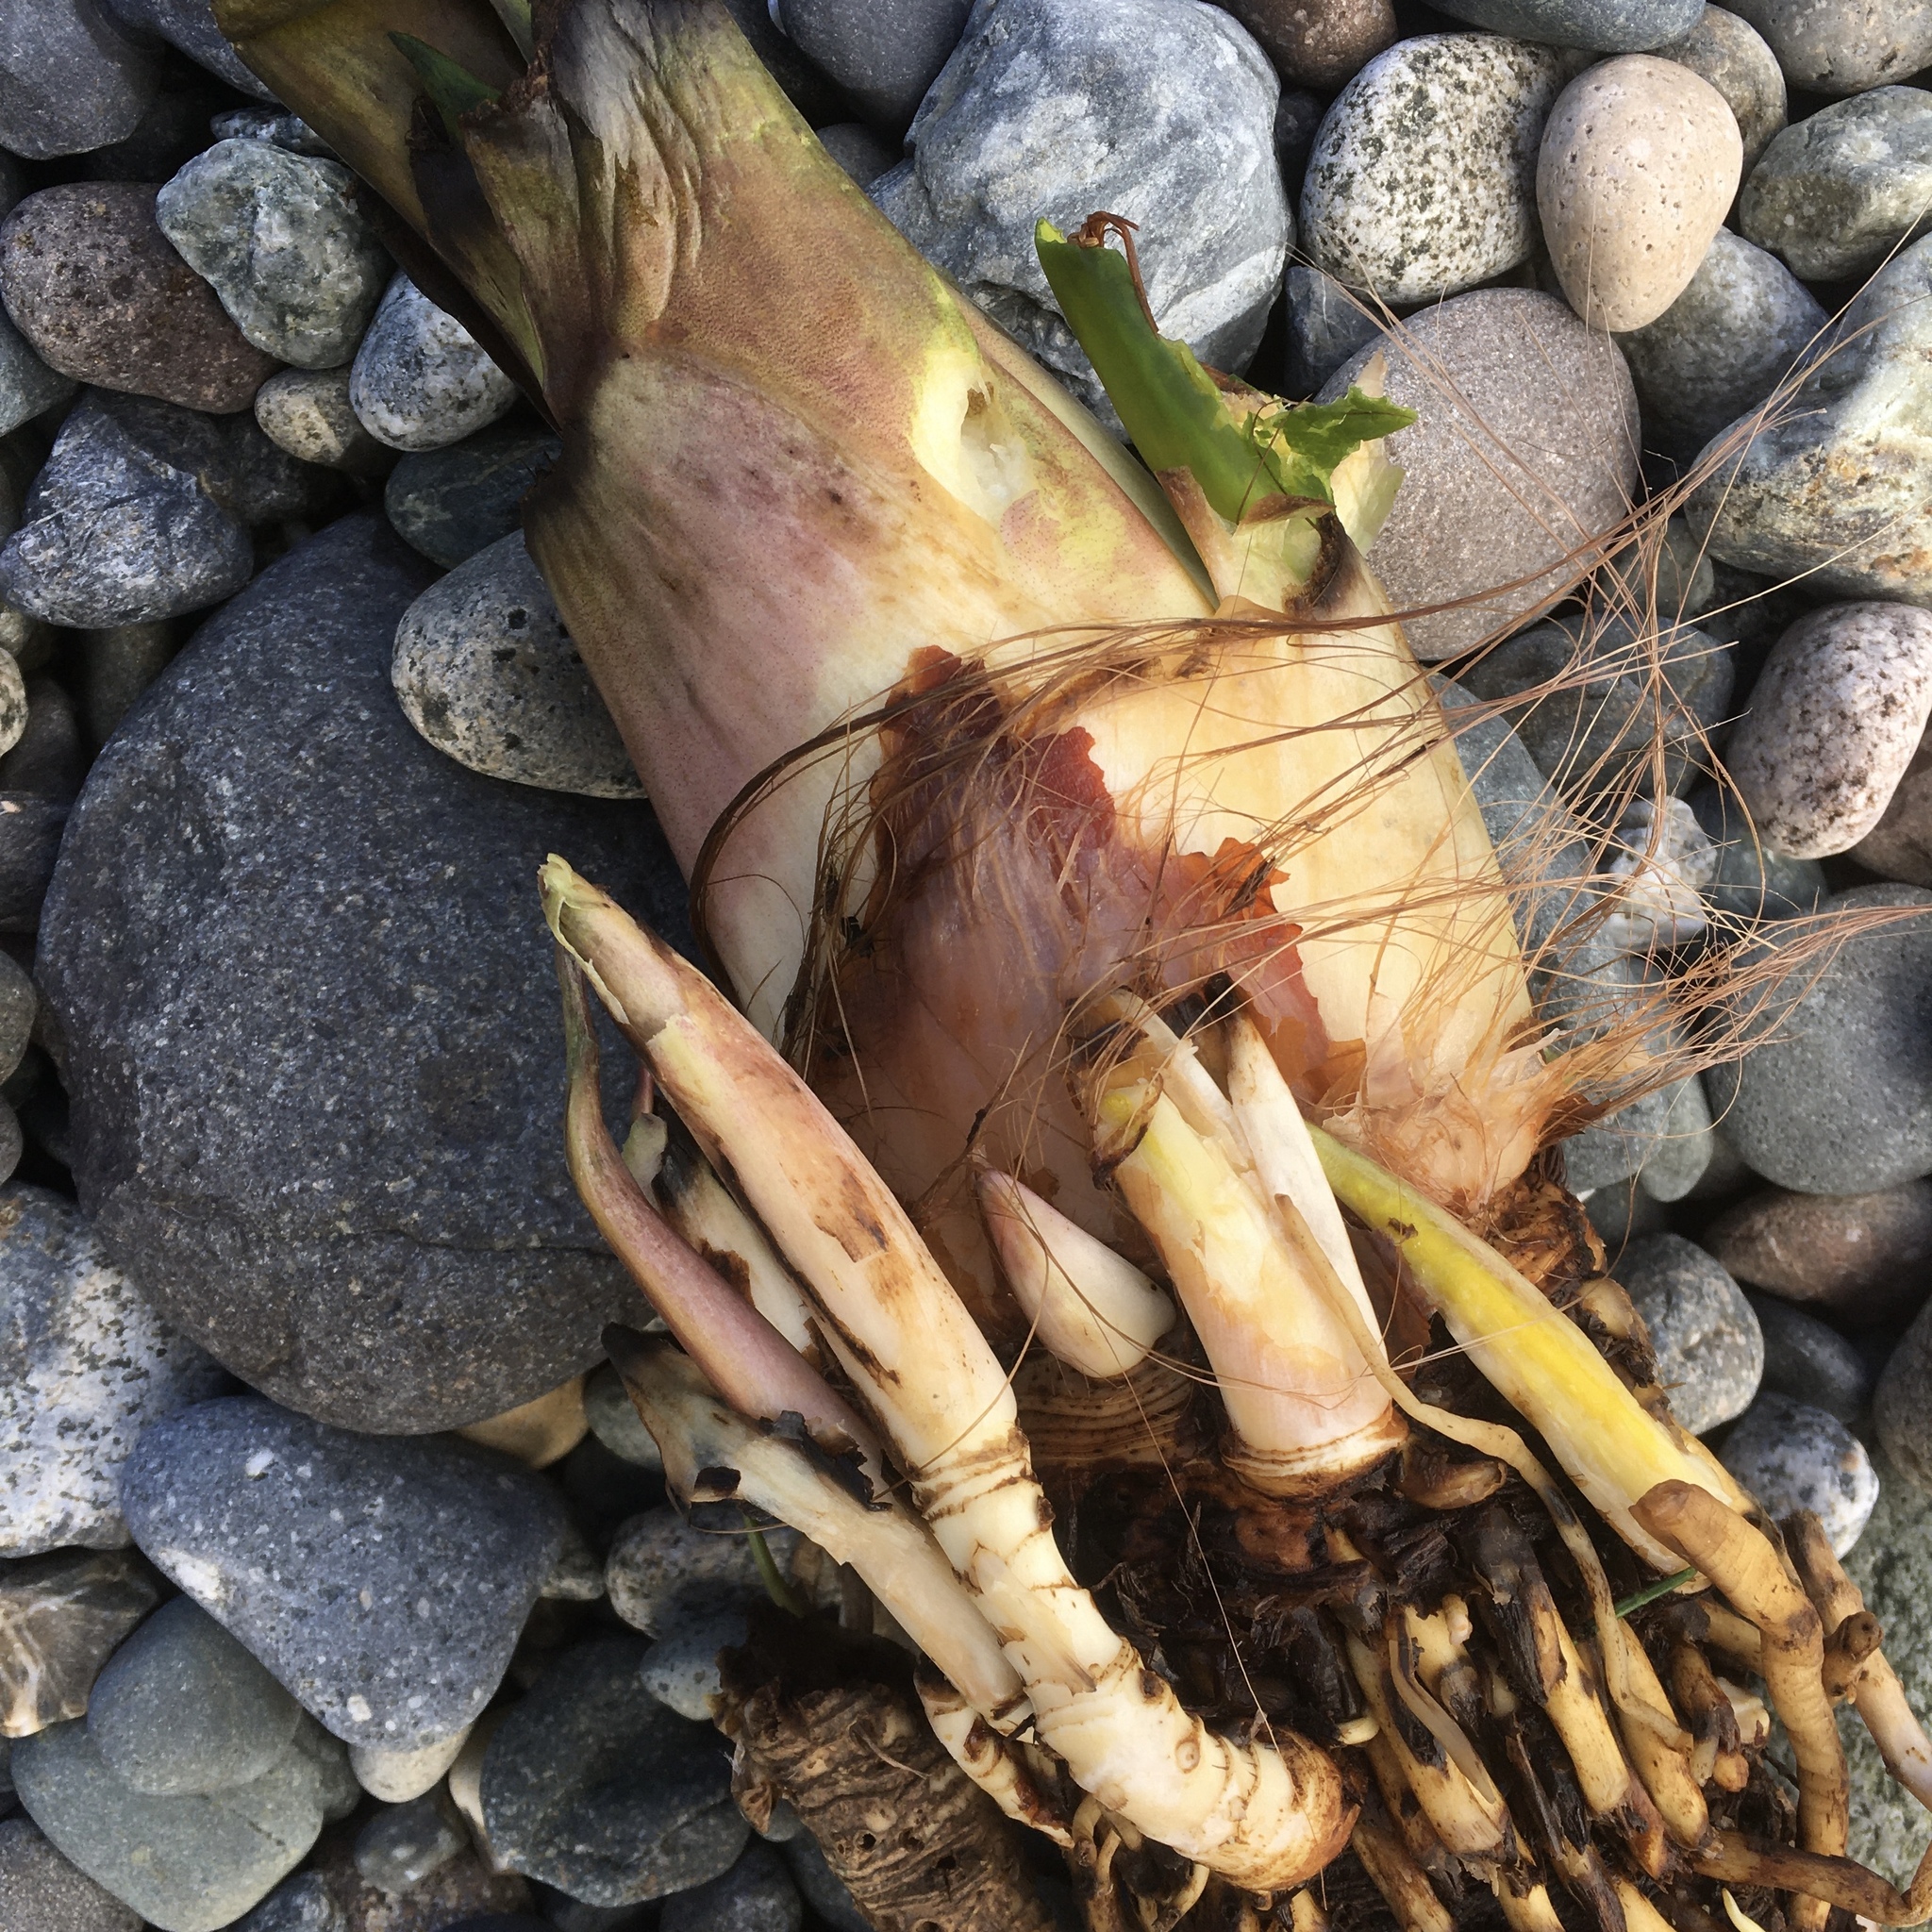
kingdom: Plantae
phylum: Tracheophyta
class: Liliopsida
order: Alismatales
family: Araceae
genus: Lysichiton
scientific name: Lysichiton americanus
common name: American skunk cabbage
